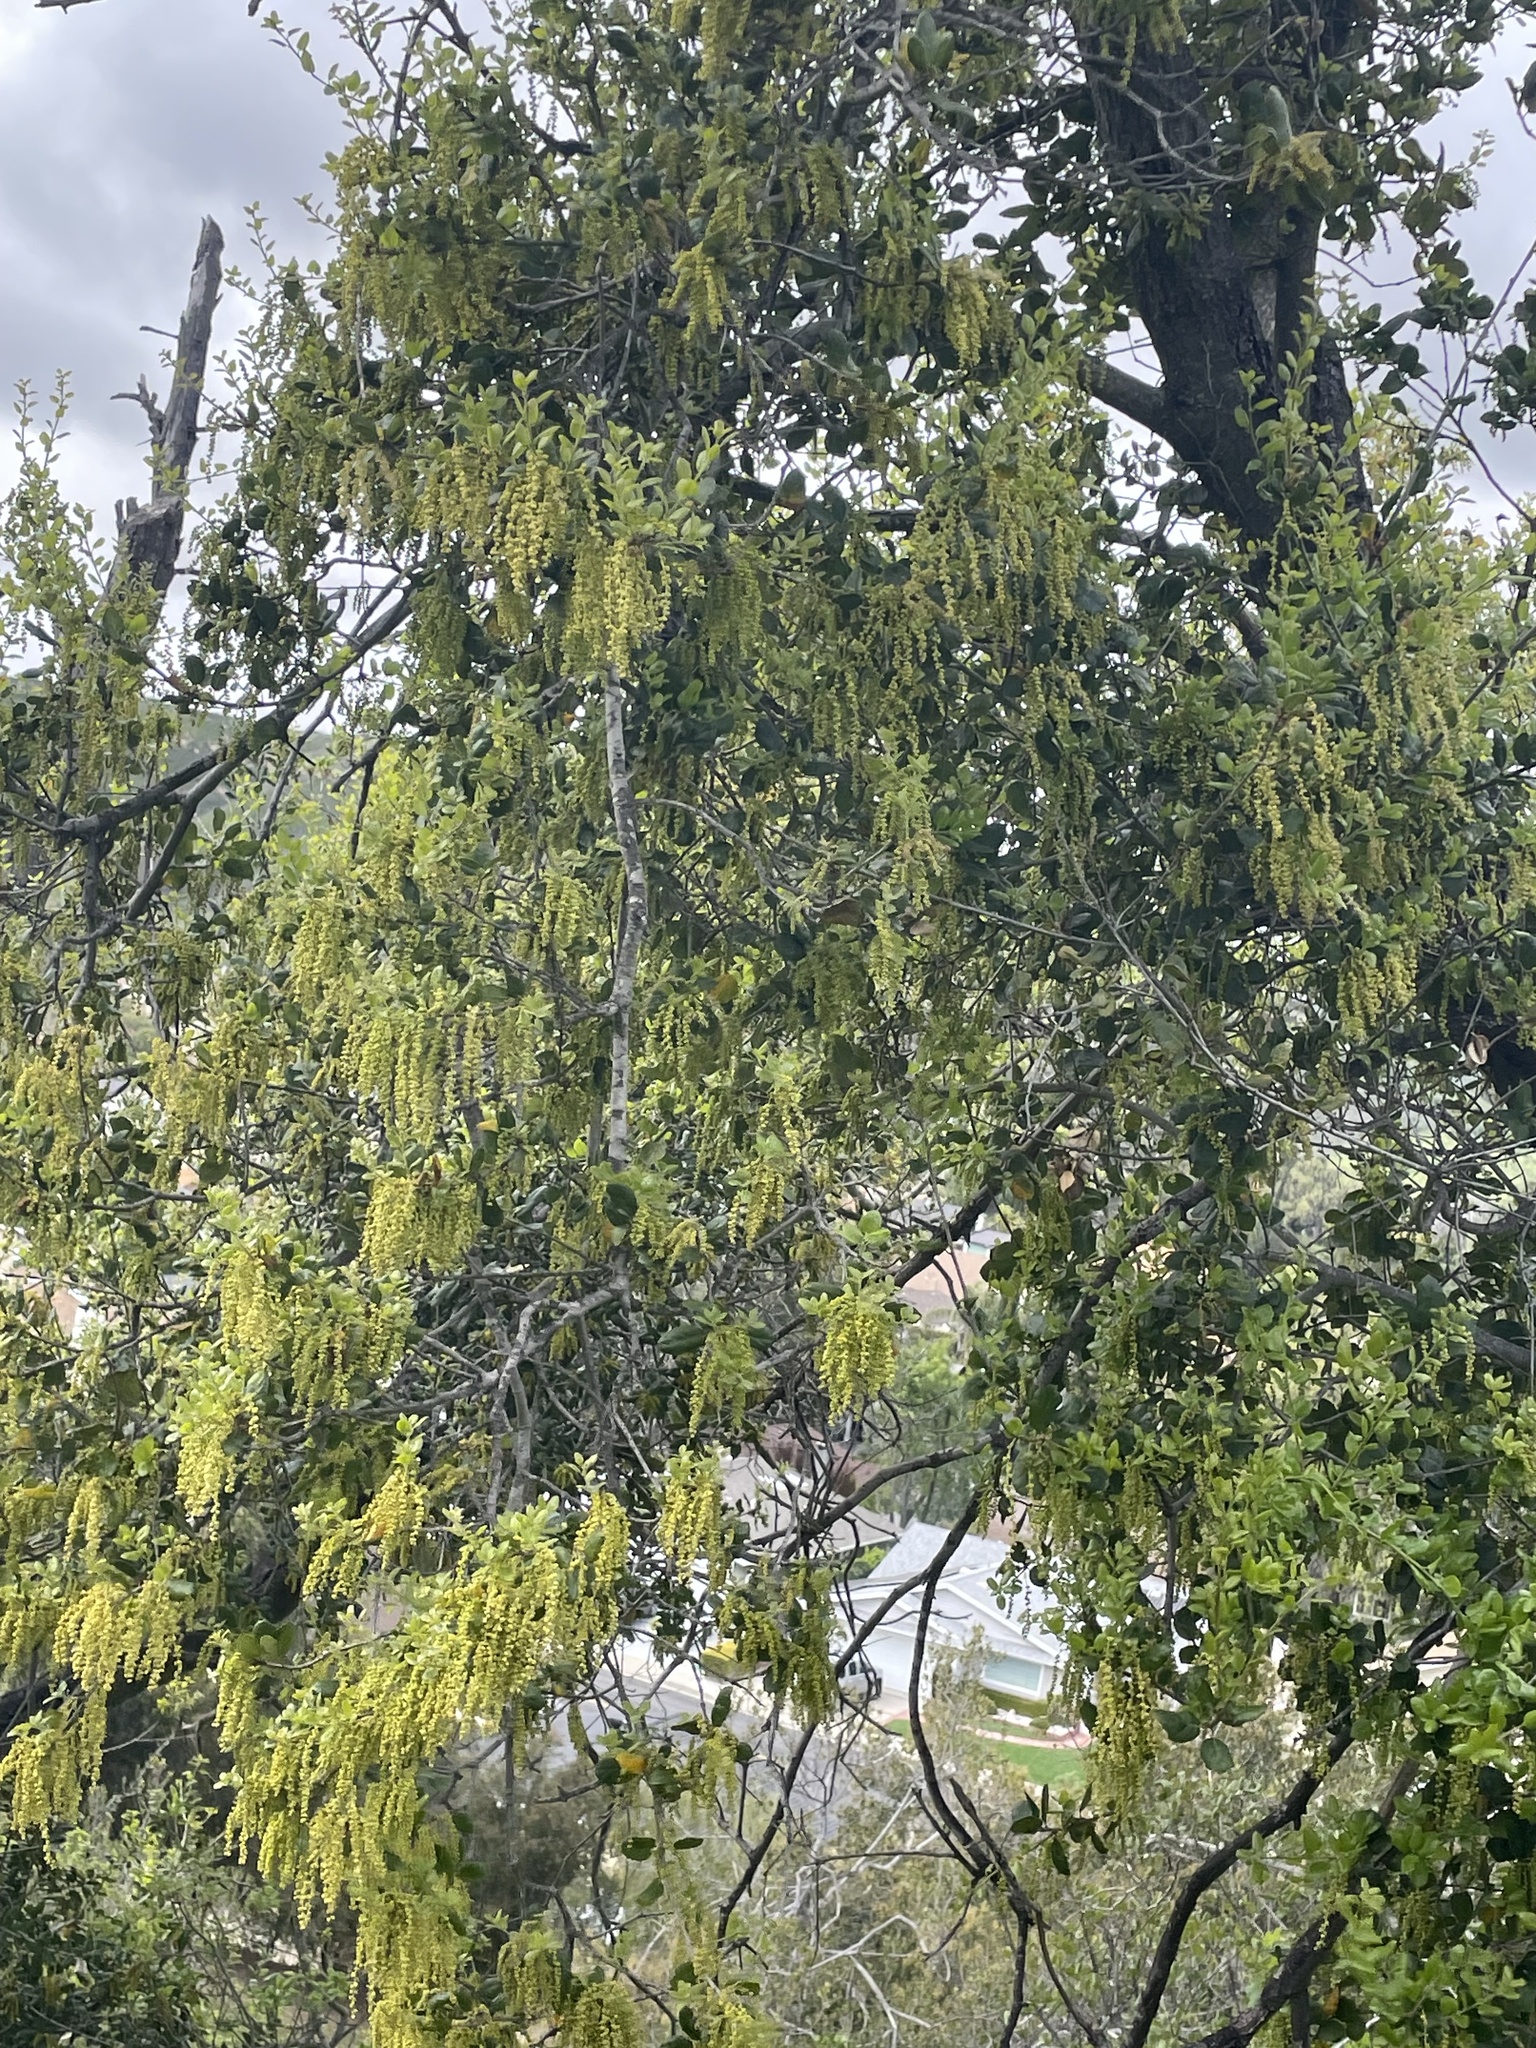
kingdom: Plantae
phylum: Tracheophyta
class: Magnoliopsida
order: Fagales
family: Fagaceae
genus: Quercus
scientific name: Quercus agrifolia
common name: California live oak
